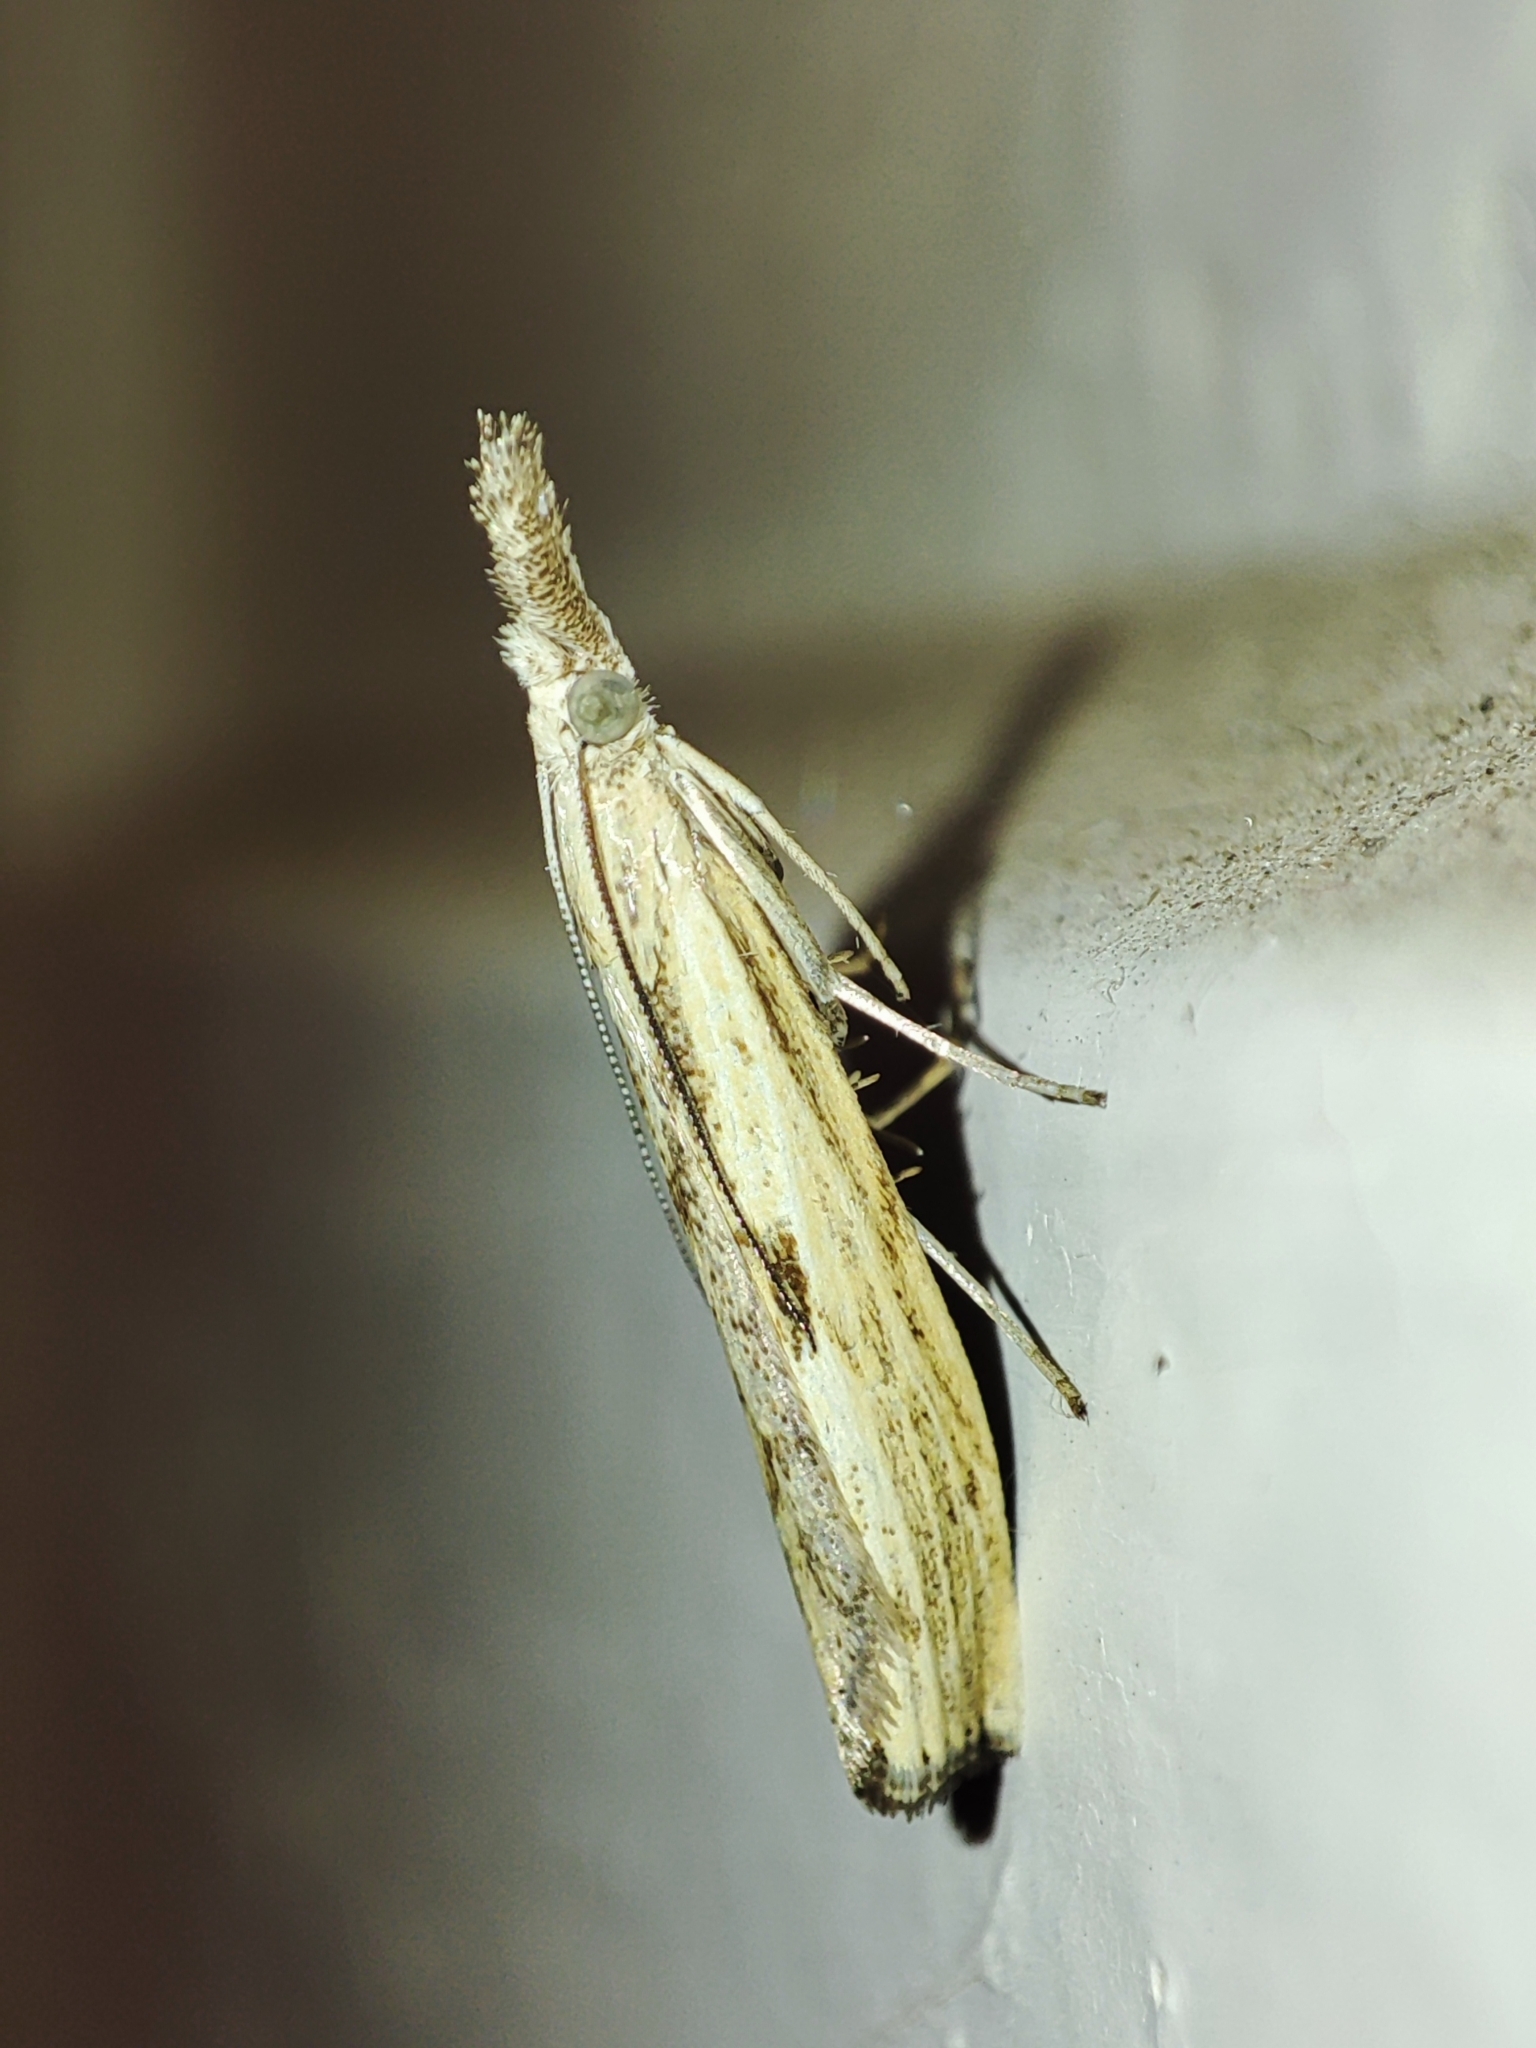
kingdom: Animalia
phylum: Arthropoda
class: Insecta
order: Lepidoptera
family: Crambidae
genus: Agriphila
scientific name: Agriphila inquinatella
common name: Barred grass-veneer
